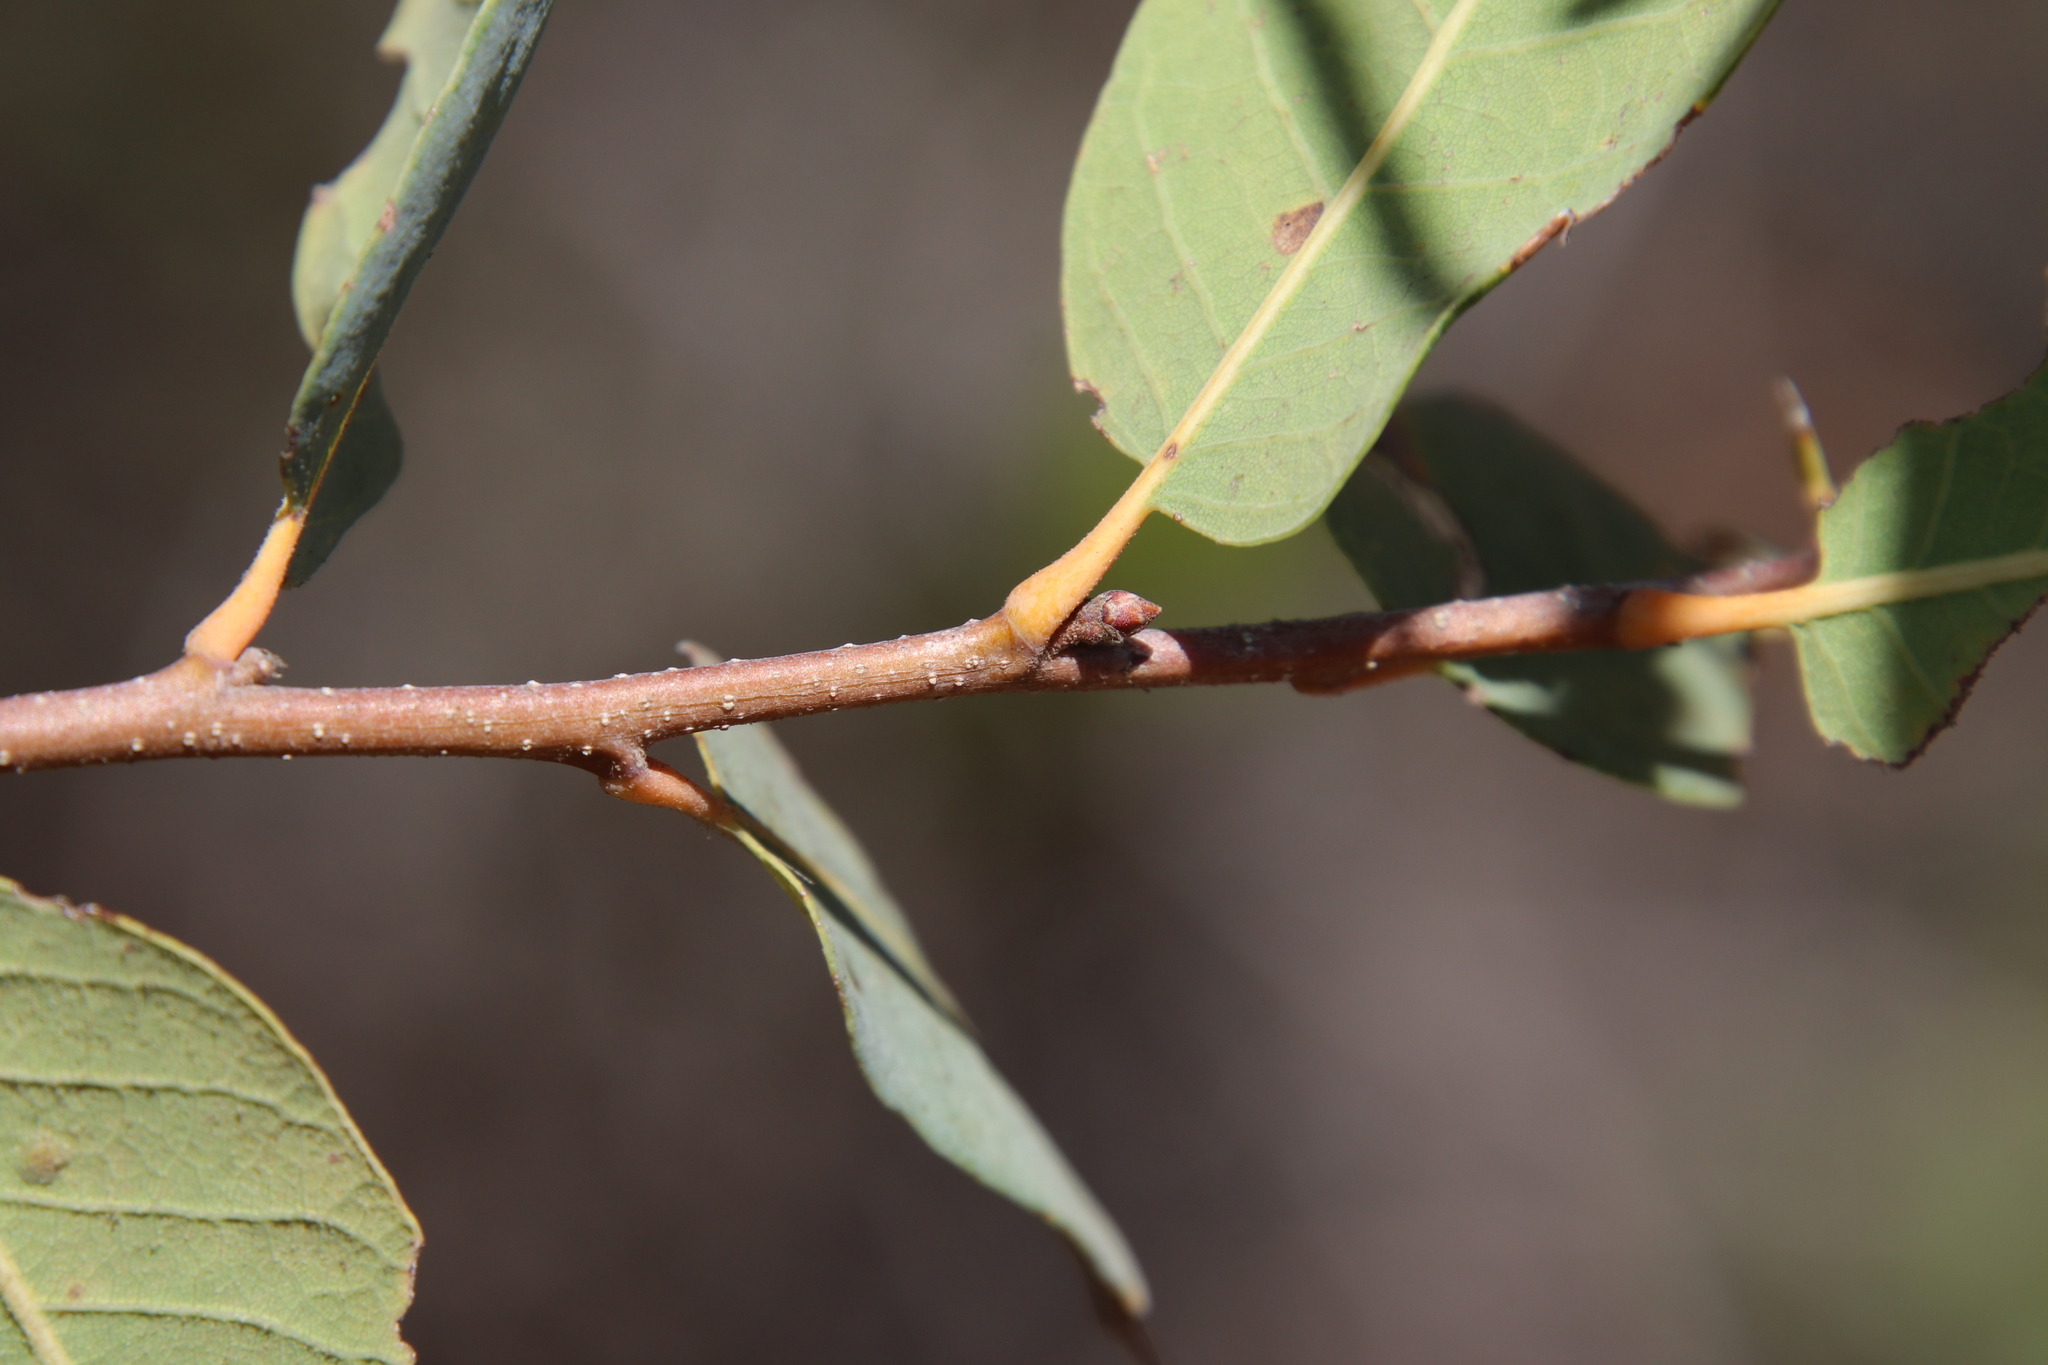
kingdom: Plantae
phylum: Tracheophyta
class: Magnoliopsida
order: Fagales
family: Fagaceae
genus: Quercus
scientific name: Quercus engelmannii
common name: Engelmann oak
